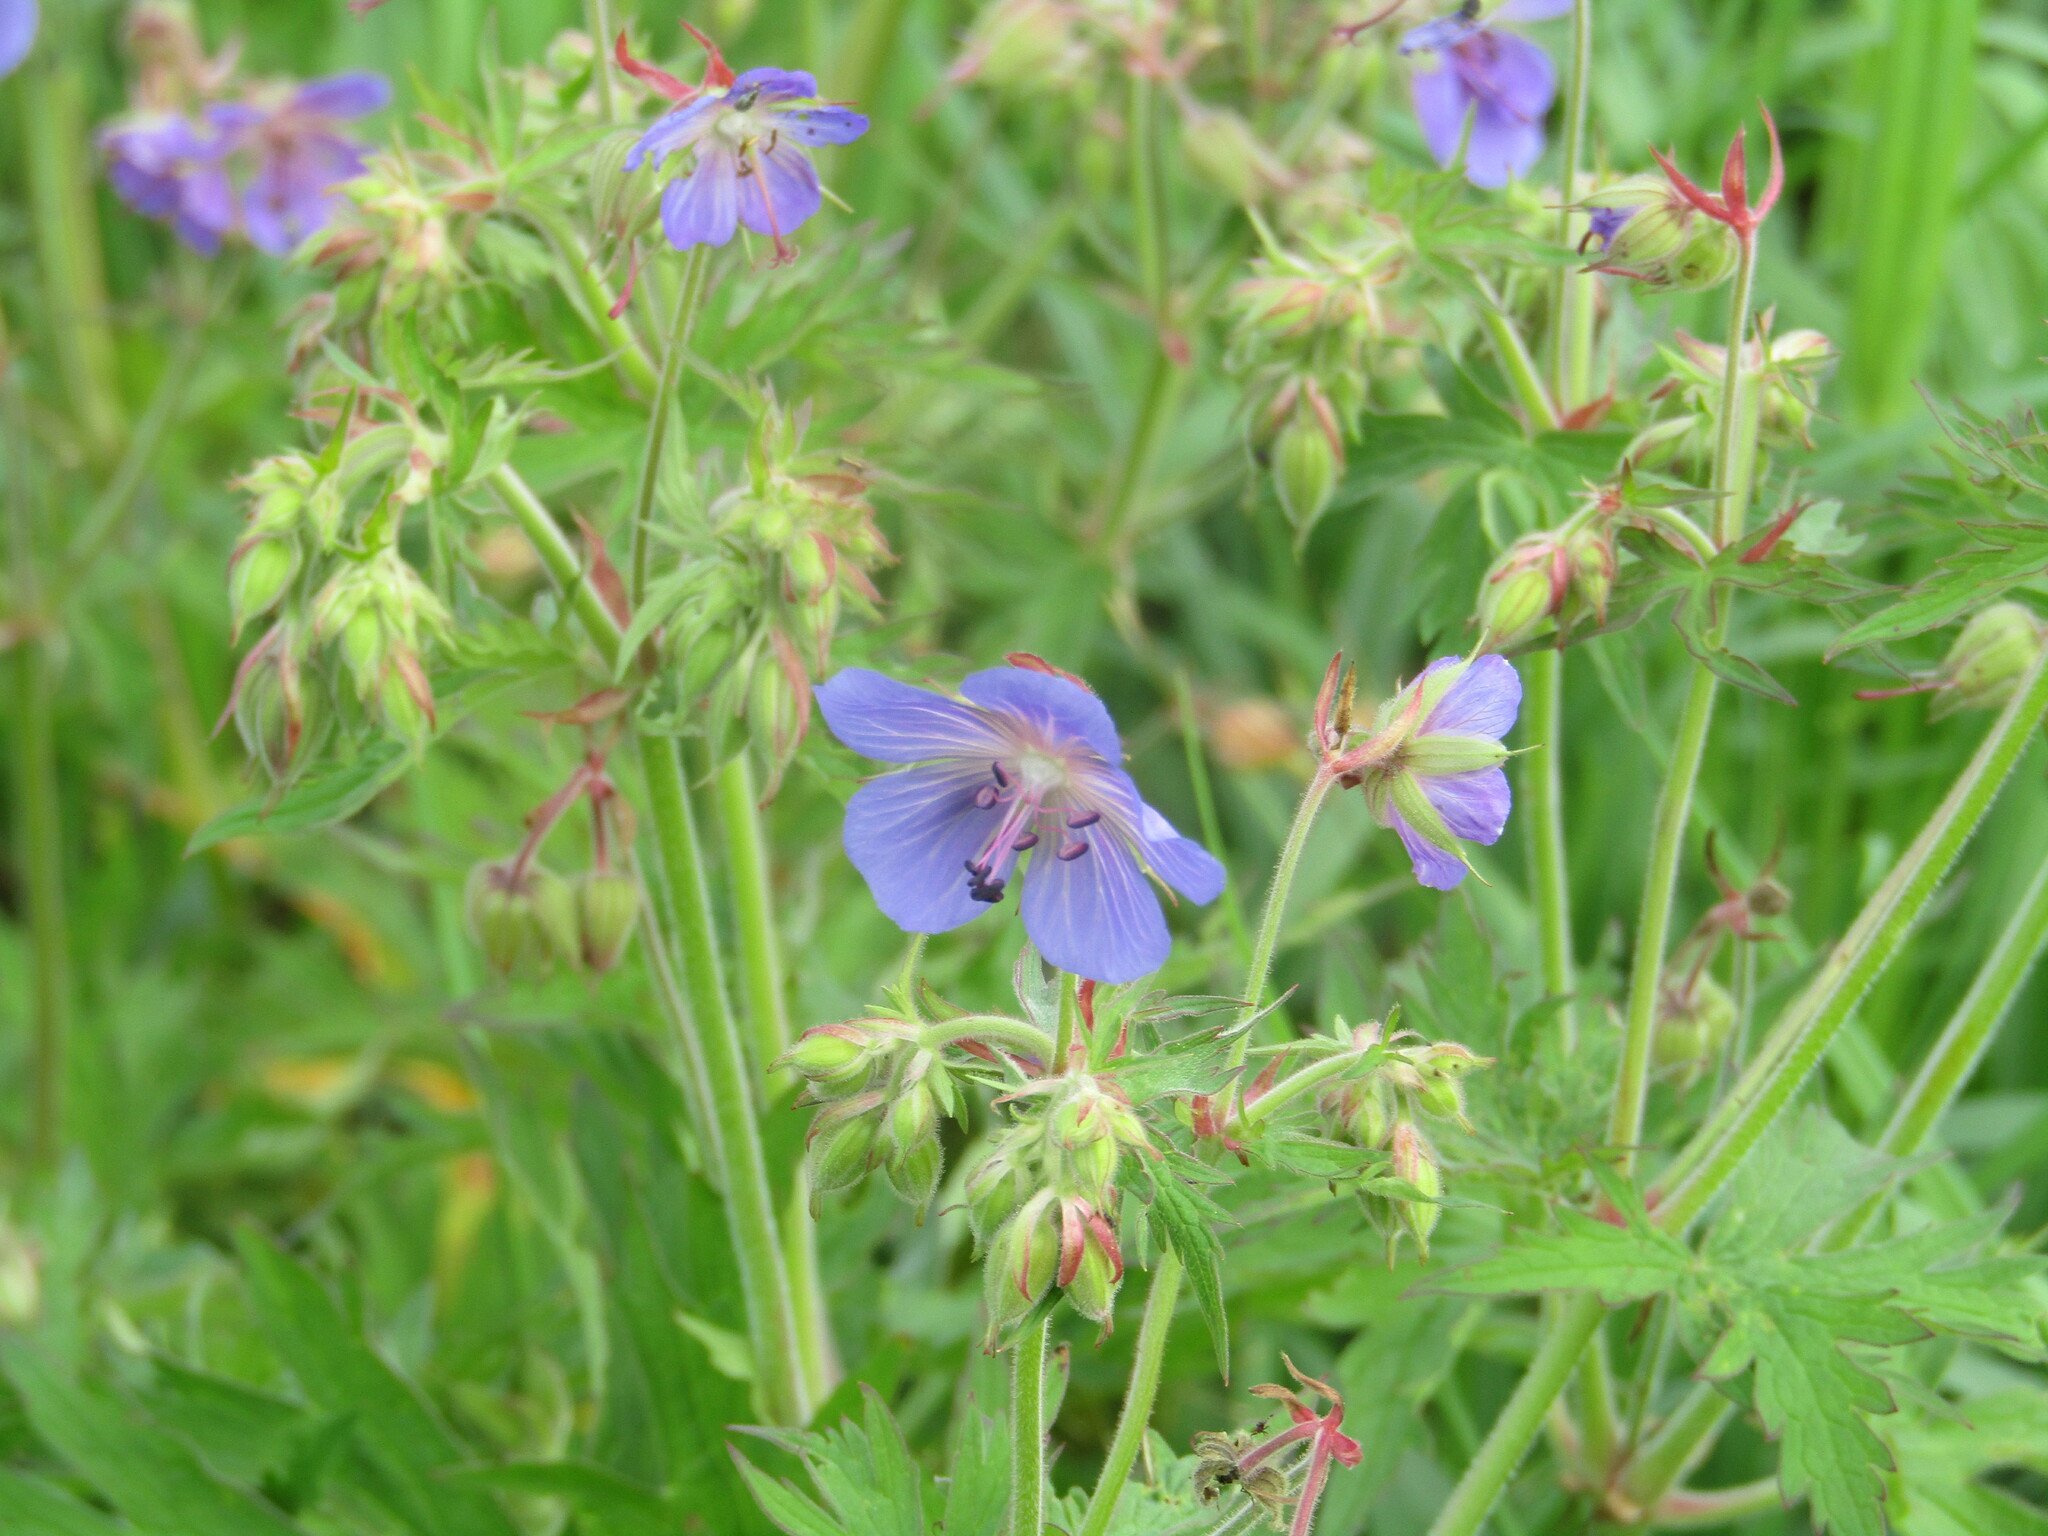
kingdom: Plantae
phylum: Tracheophyta
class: Magnoliopsida
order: Geraniales
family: Geraniaceae
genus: Geranium
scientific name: Geranium pratense
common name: Meadow crane's-bill
